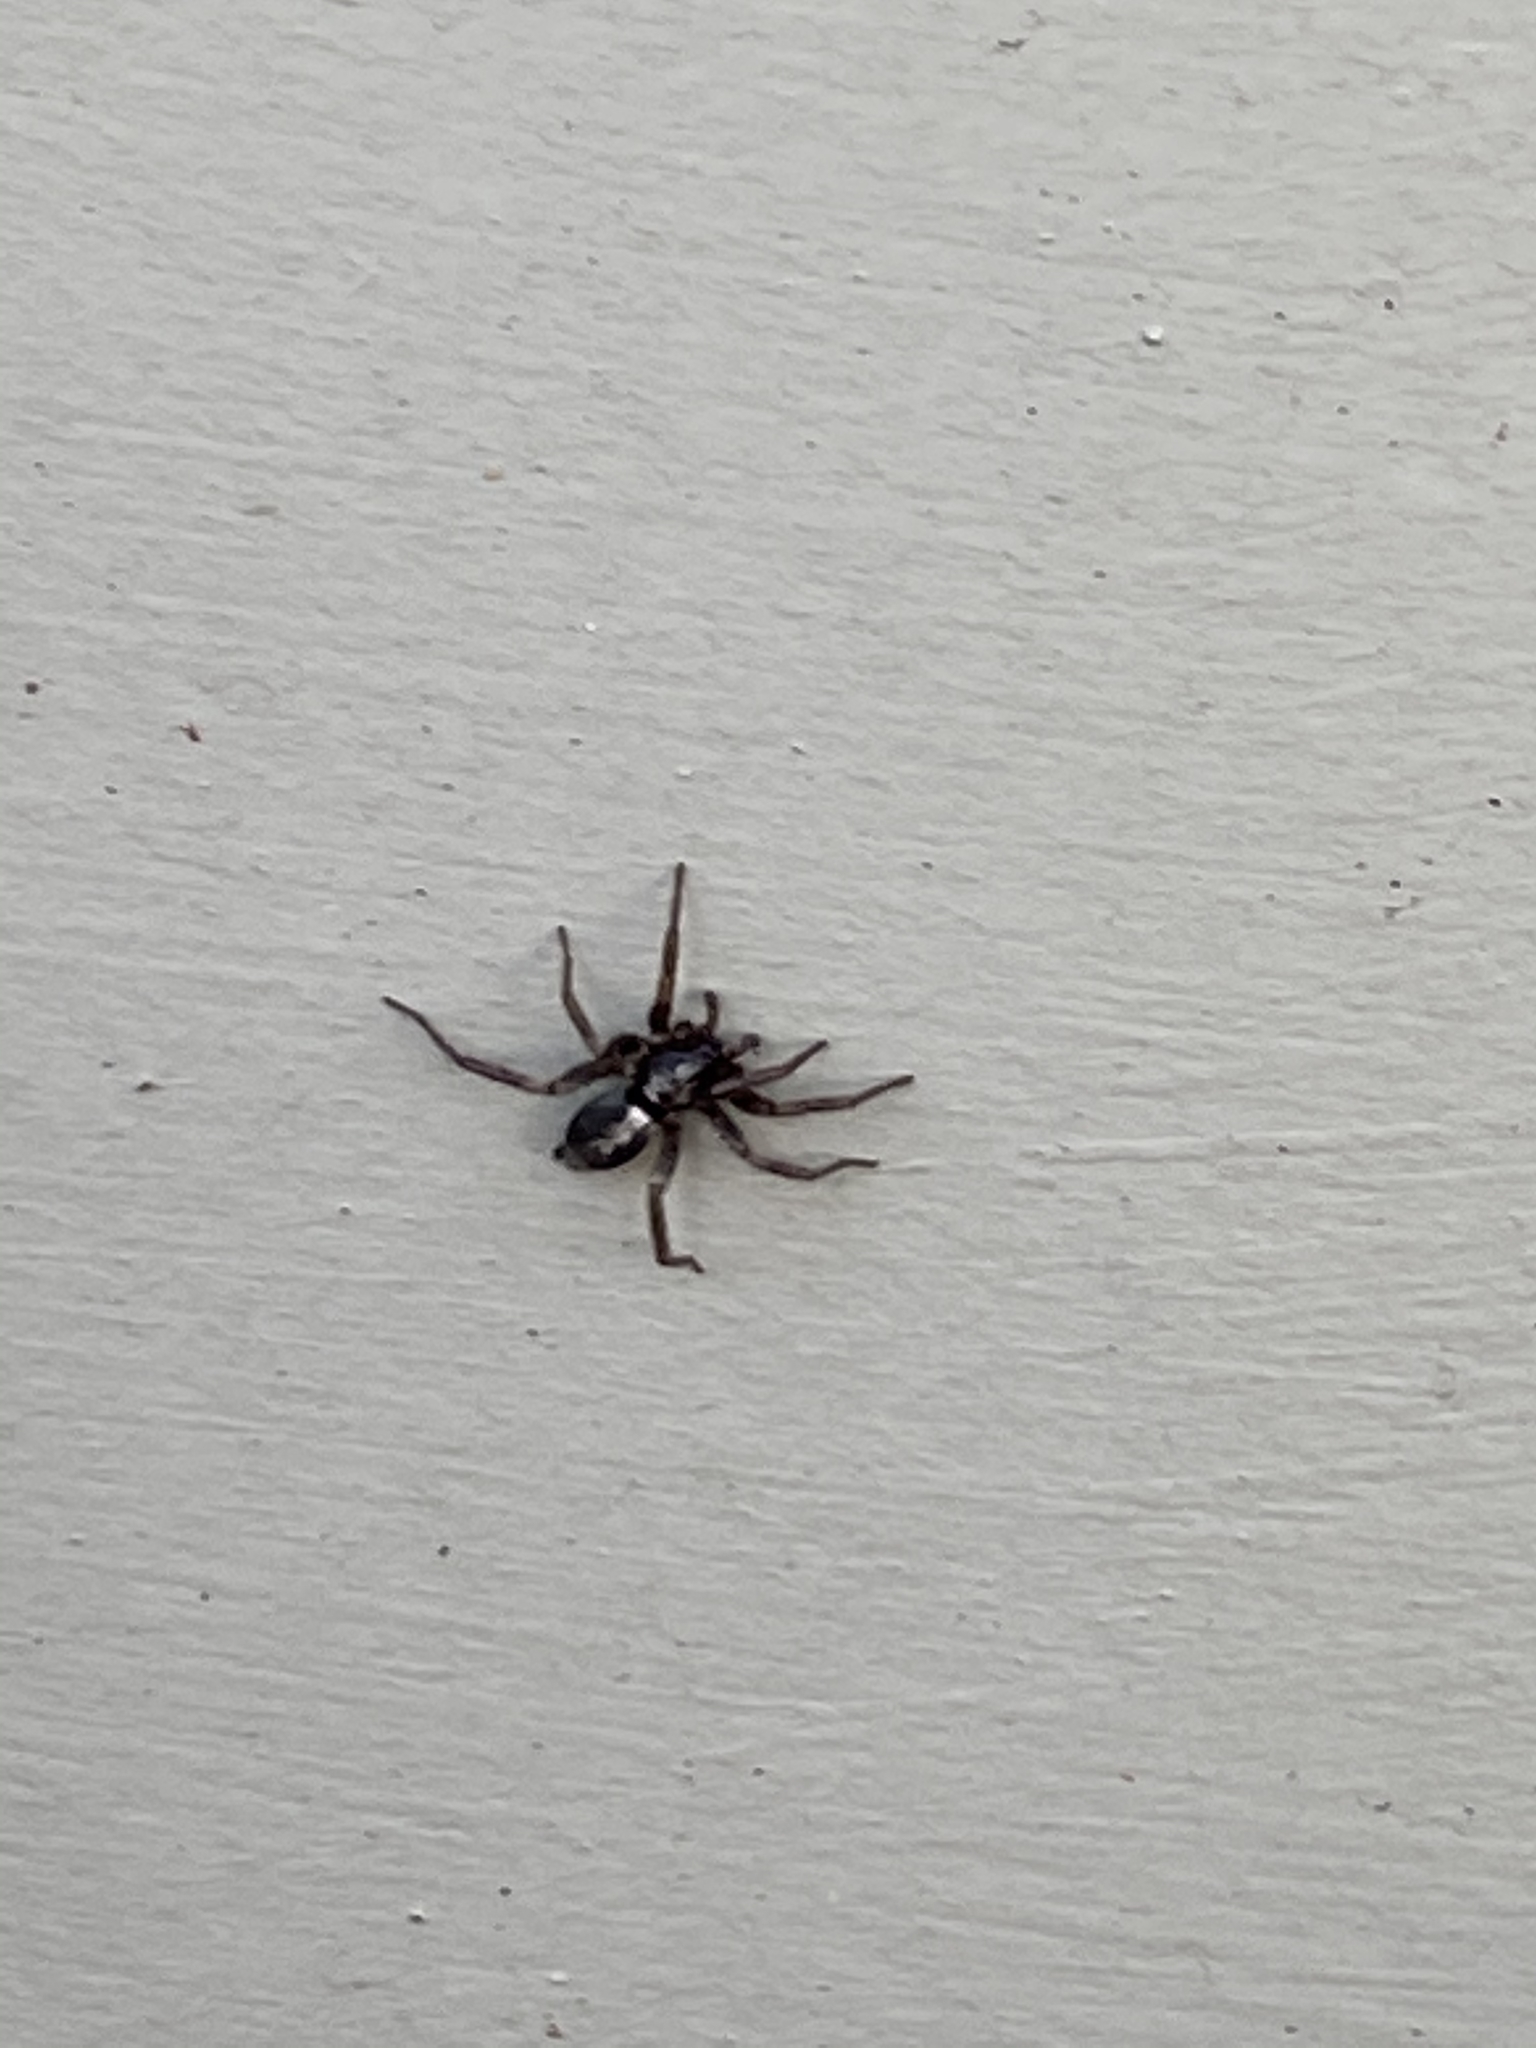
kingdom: Animalia
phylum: Arthropoda
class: Arachnida
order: Araneae
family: Gnaphosidae
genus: Herpyllus
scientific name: Herpyllus ecclesiasticus
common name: Eastern parson spider
